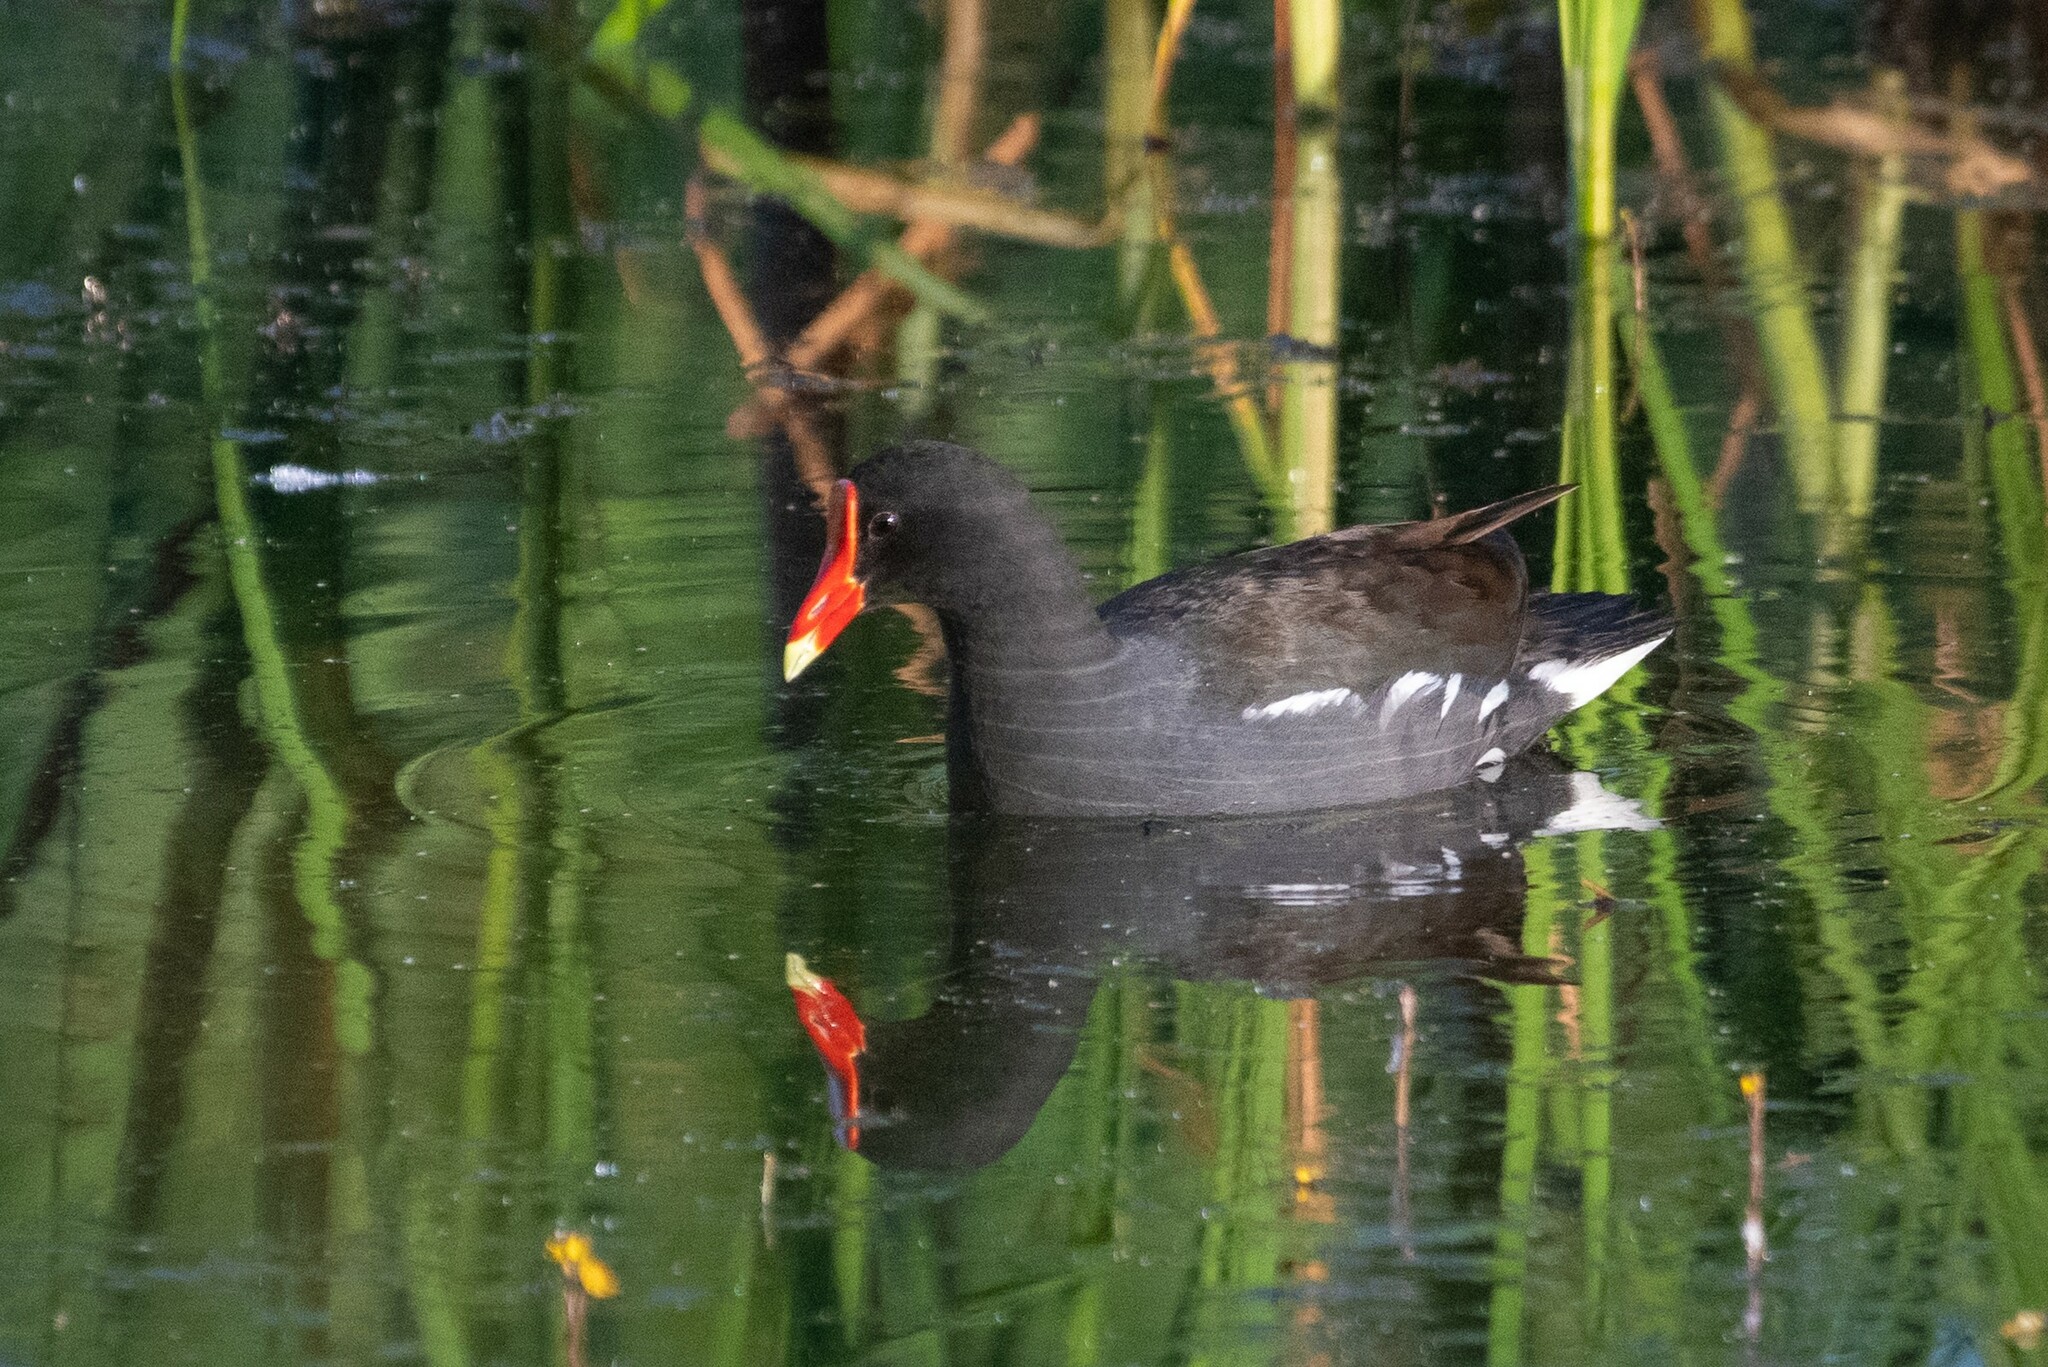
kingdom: Animalia
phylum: Chordata
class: Aves
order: Gruiformes
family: Rallidae
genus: Gallinula
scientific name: Gallinula chloropus
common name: Common moorhen
